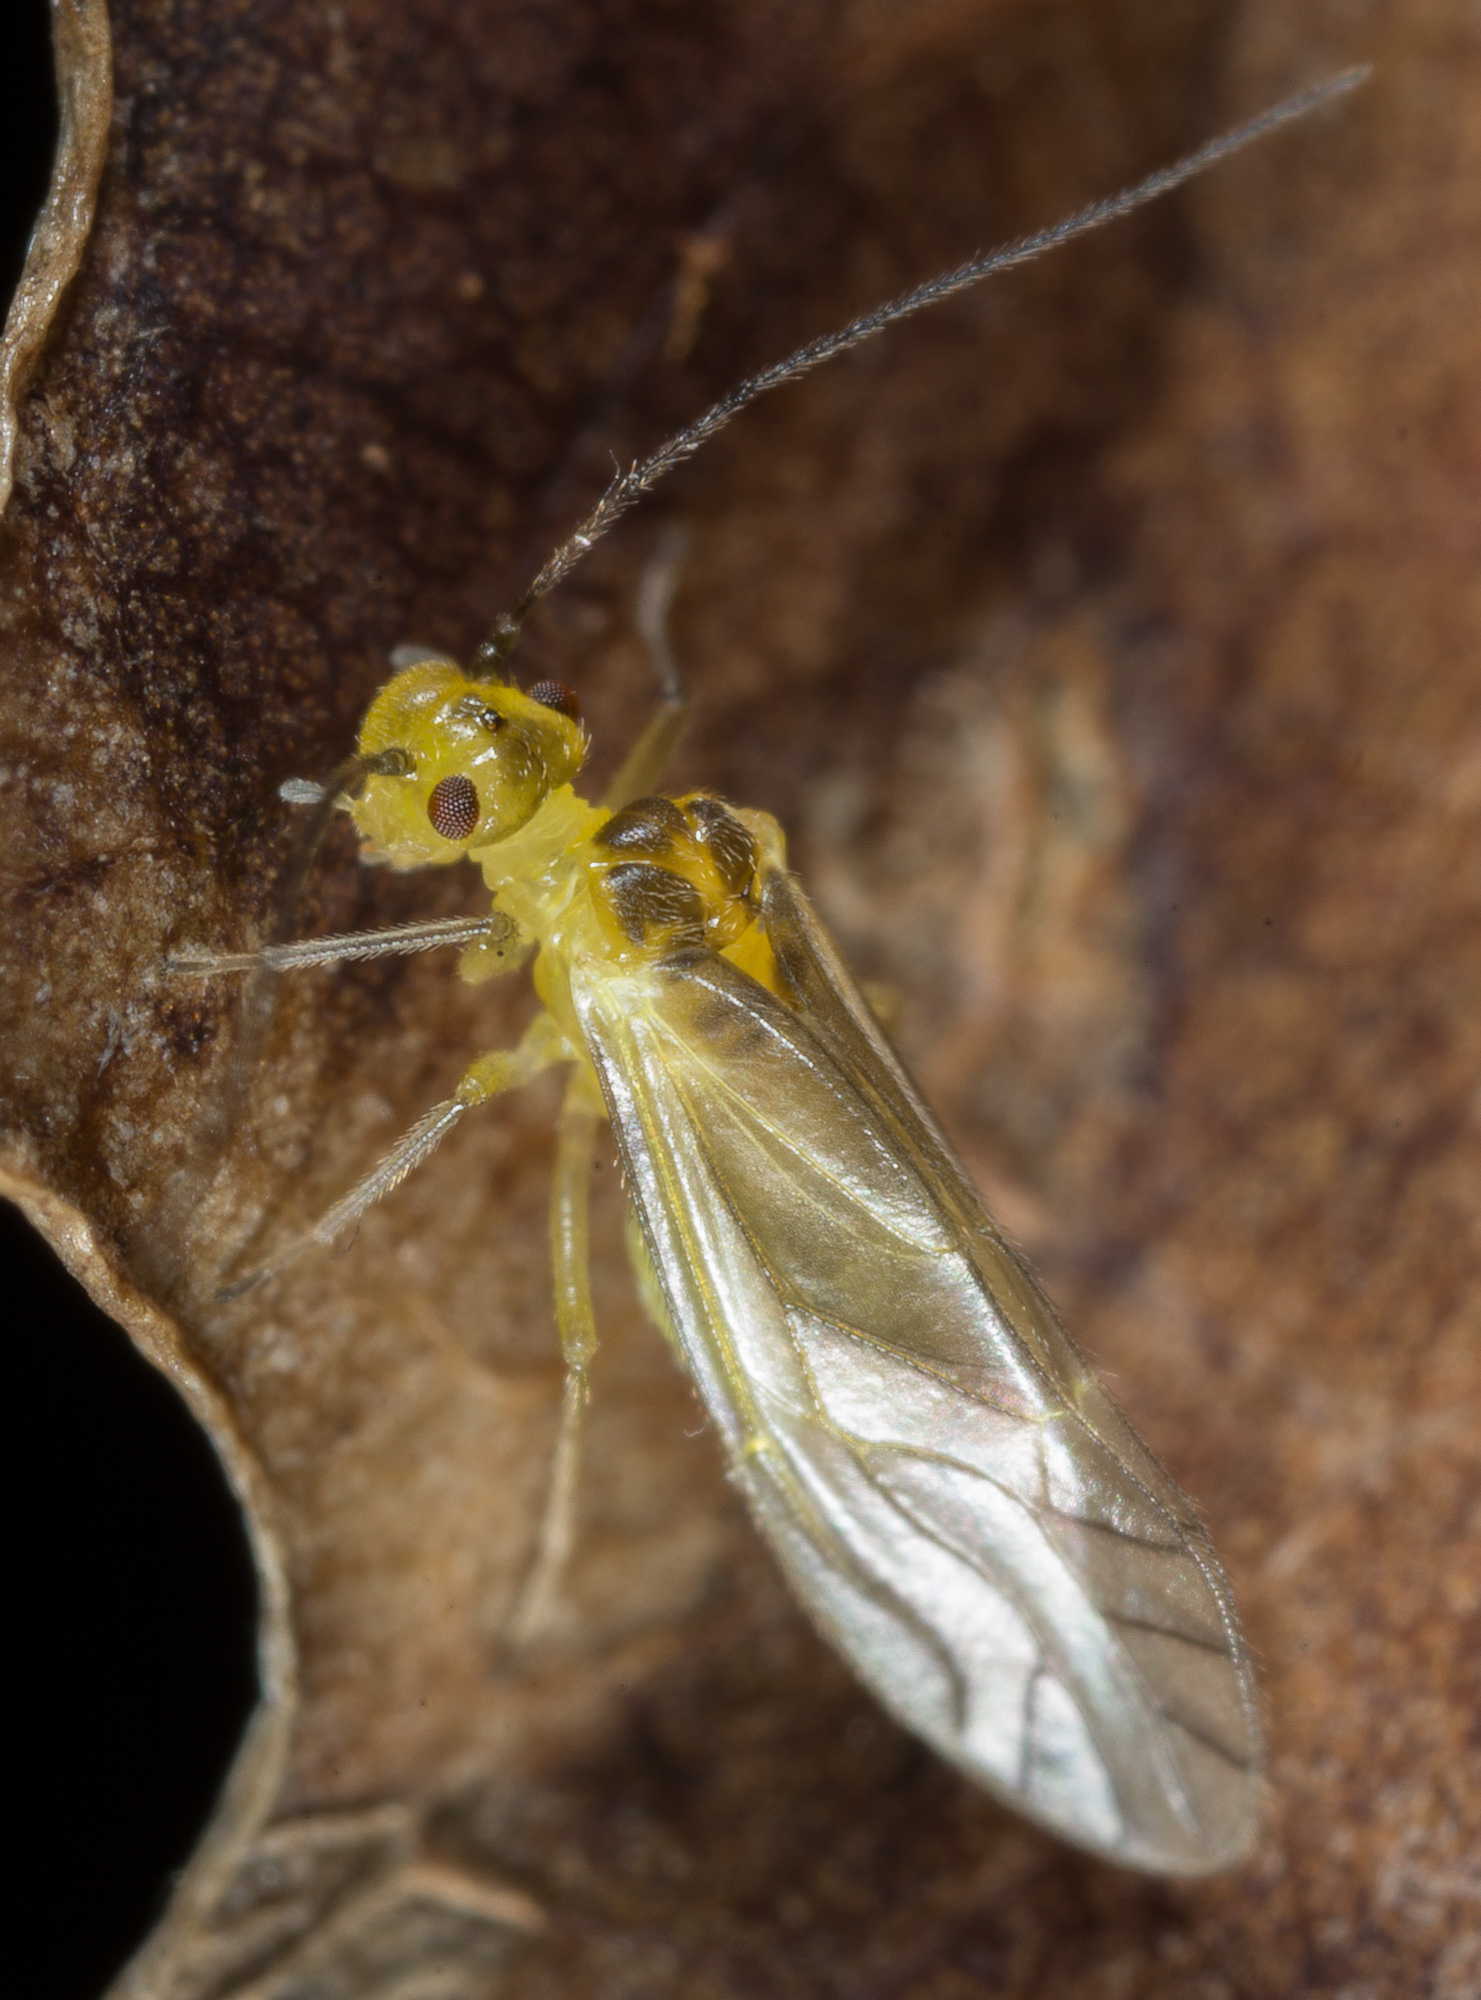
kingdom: Animalia
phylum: Arthropoda
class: Insecta
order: Psocodea
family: Caeciliusidae
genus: Valenzuela
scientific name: Valenzuela flavidus
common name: Yellow barklouse
